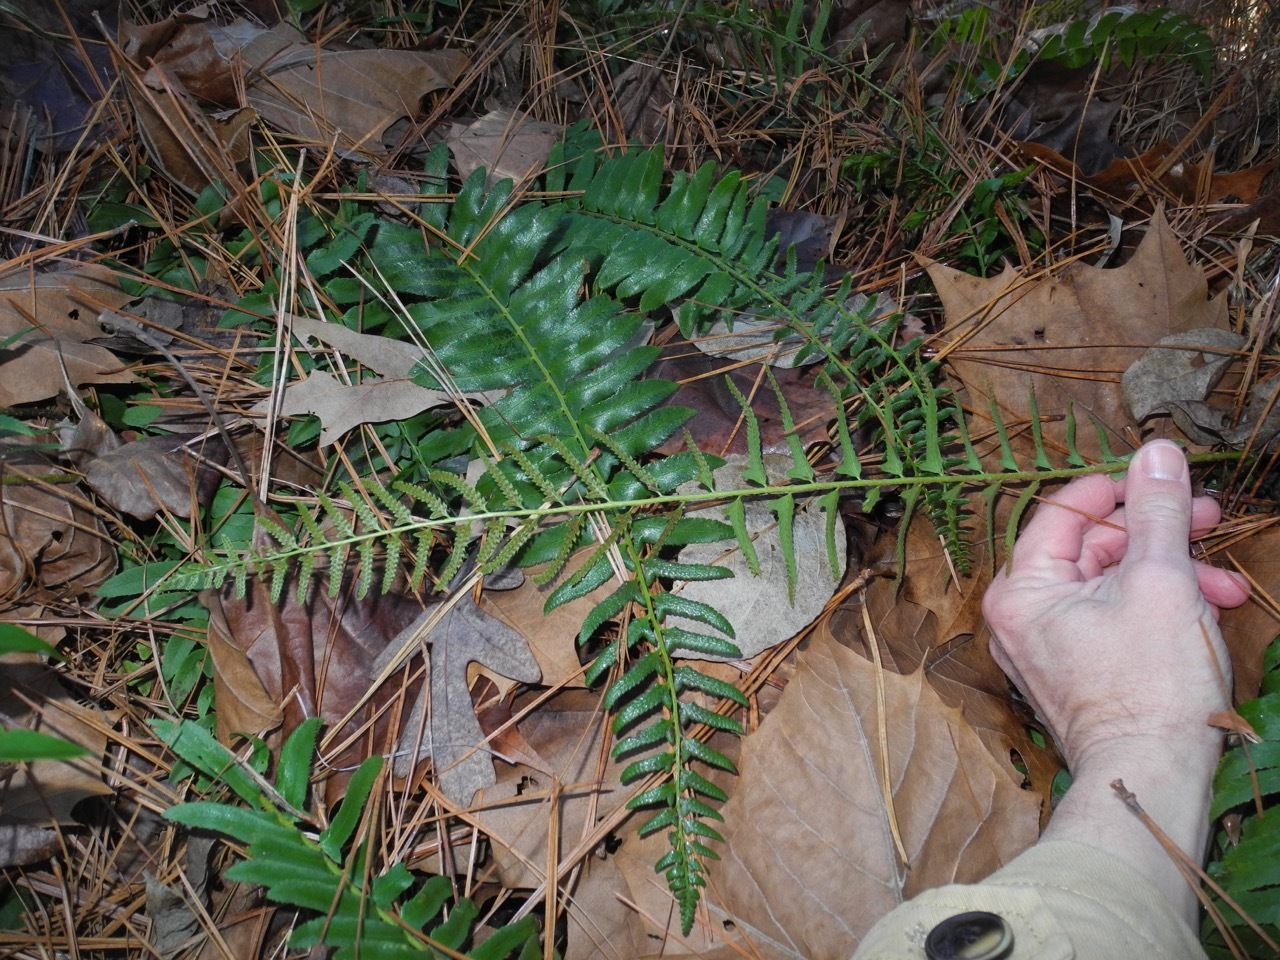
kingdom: Plantae
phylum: Tracheophyta
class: Polypodiopsida
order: Polypodiales
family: Dryopteridaceae
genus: Polystichum
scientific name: Polystichum acrostichoides
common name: Christmas fern
